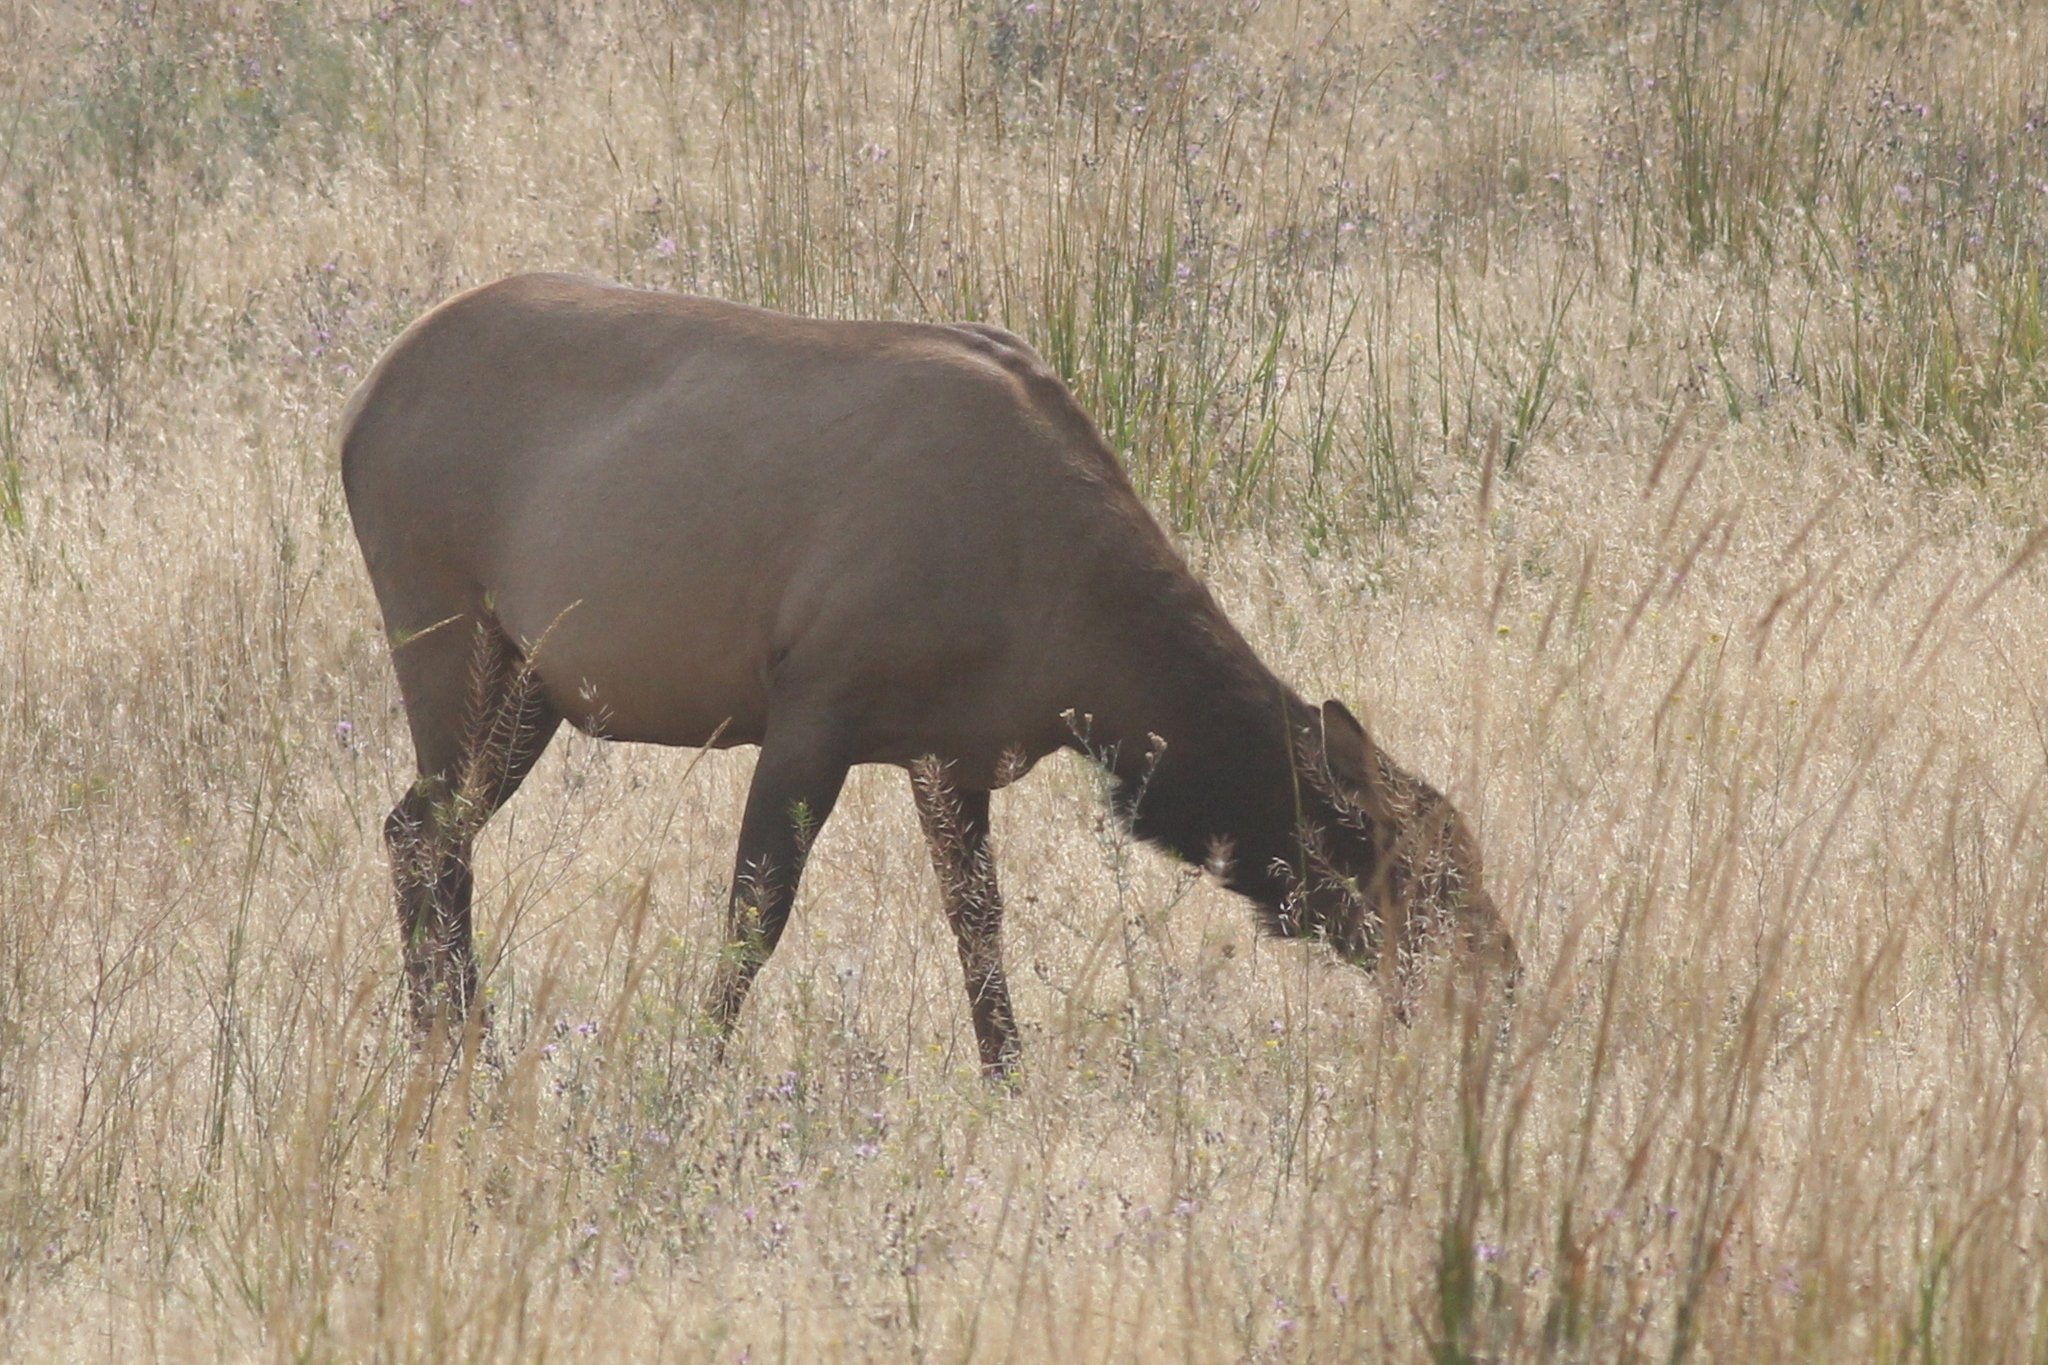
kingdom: Animalia
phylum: Chordata
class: Mammalia
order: Artiodactyla
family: Cervidae
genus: Cervus
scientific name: Cervus elaphus
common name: Red deer
